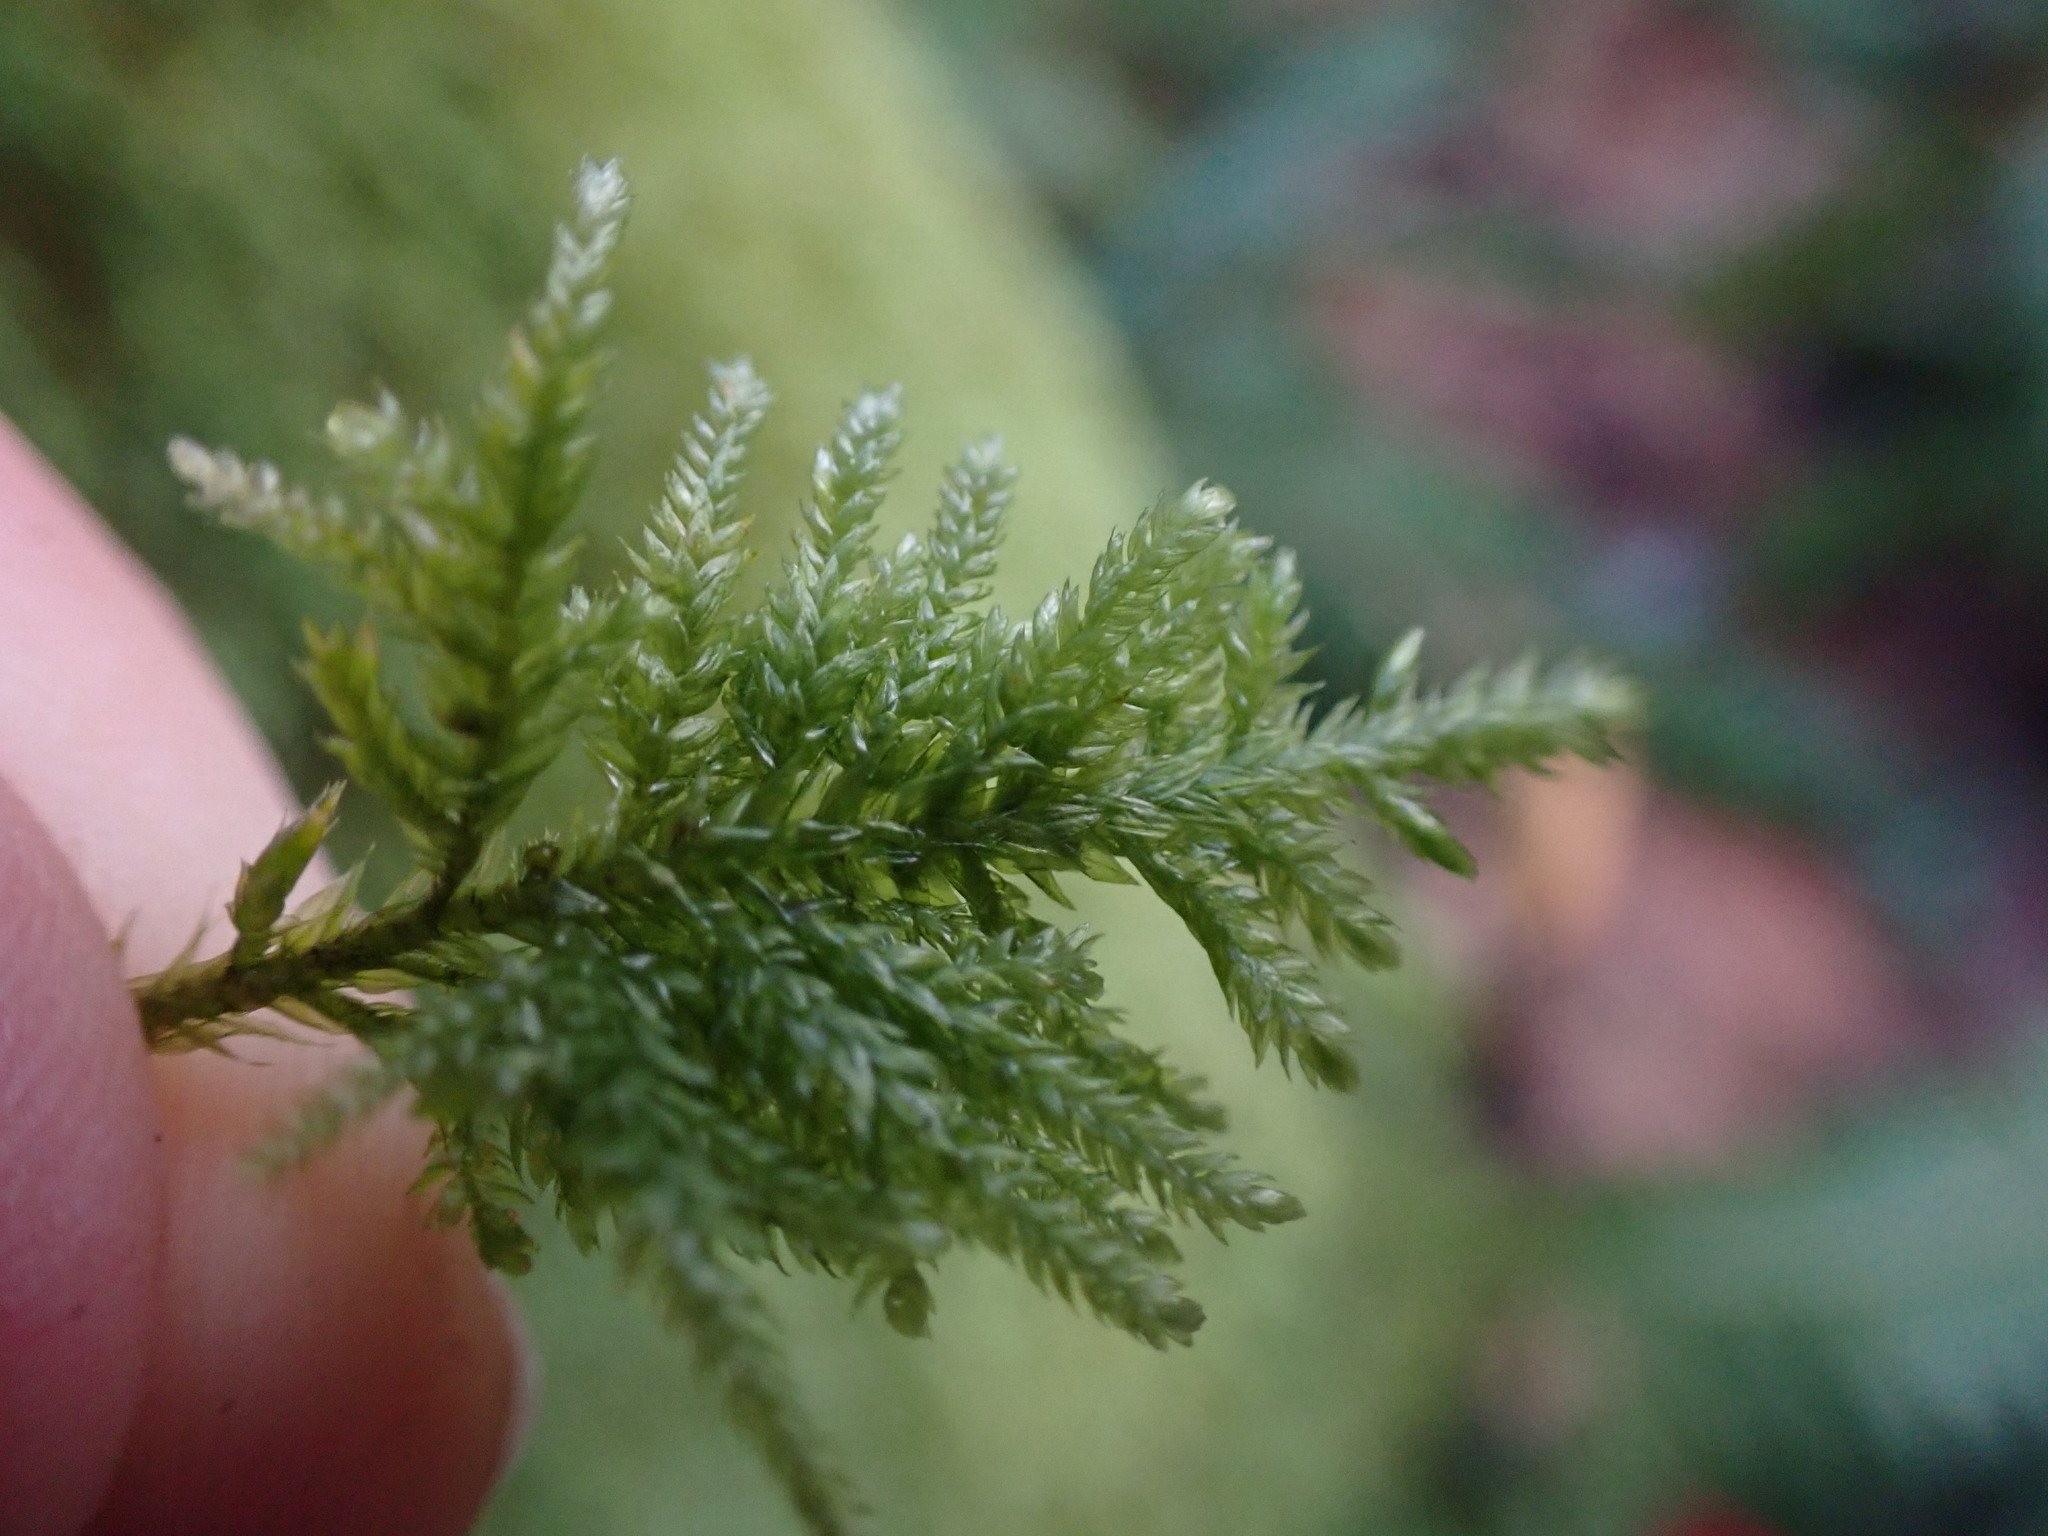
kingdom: Plantae
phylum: Bryophyta
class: Bryopsida
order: Hypnales
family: Lembophyllaceae
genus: Pseudisothecium
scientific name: Pseudisothecium stoloniferum
